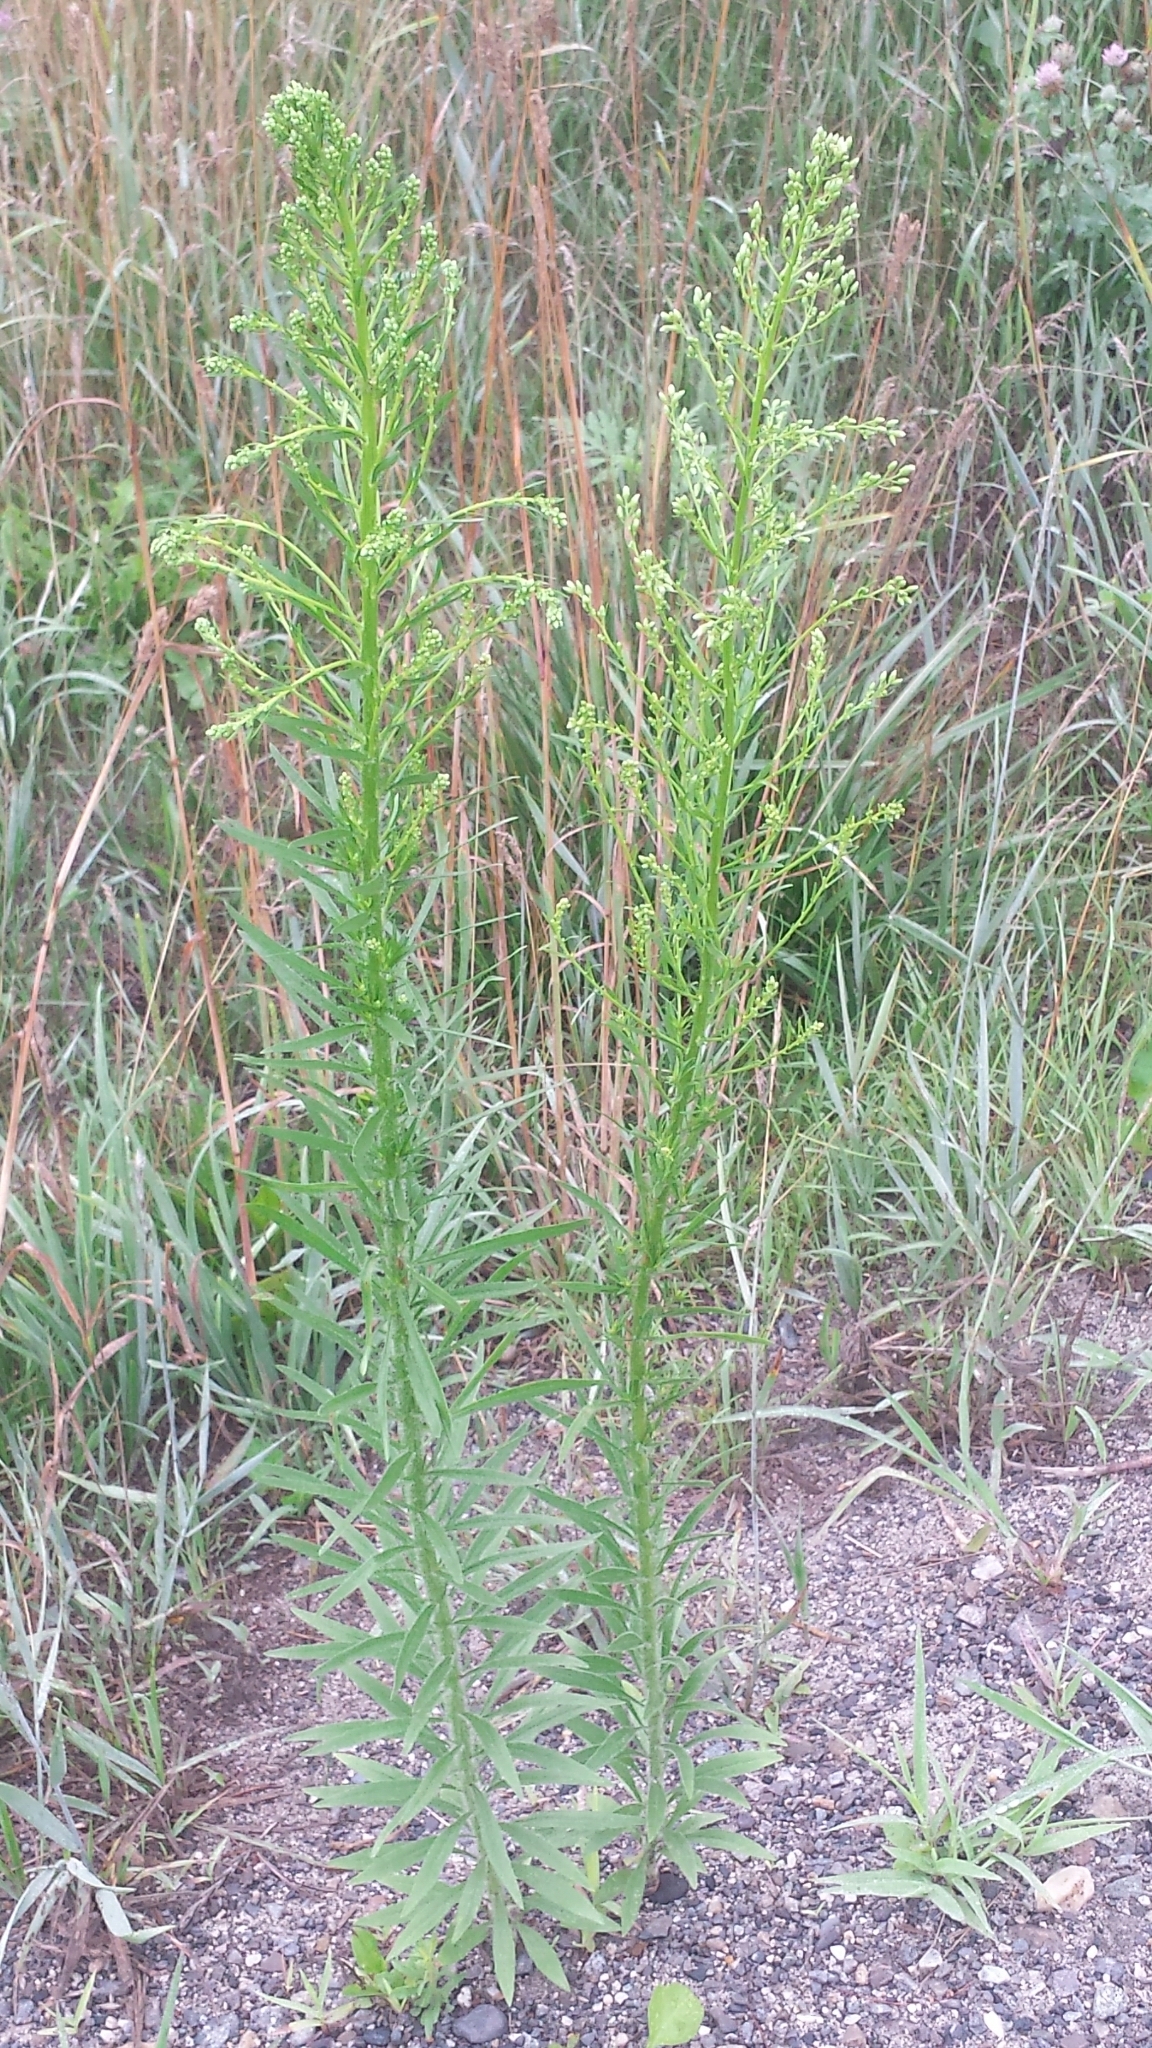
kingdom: Plantae
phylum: Tracheophyta
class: Magnoliopsida
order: Asterales
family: Asteraceae
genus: Erigeron
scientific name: Erigeron canadensis
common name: Canadian fleabane
